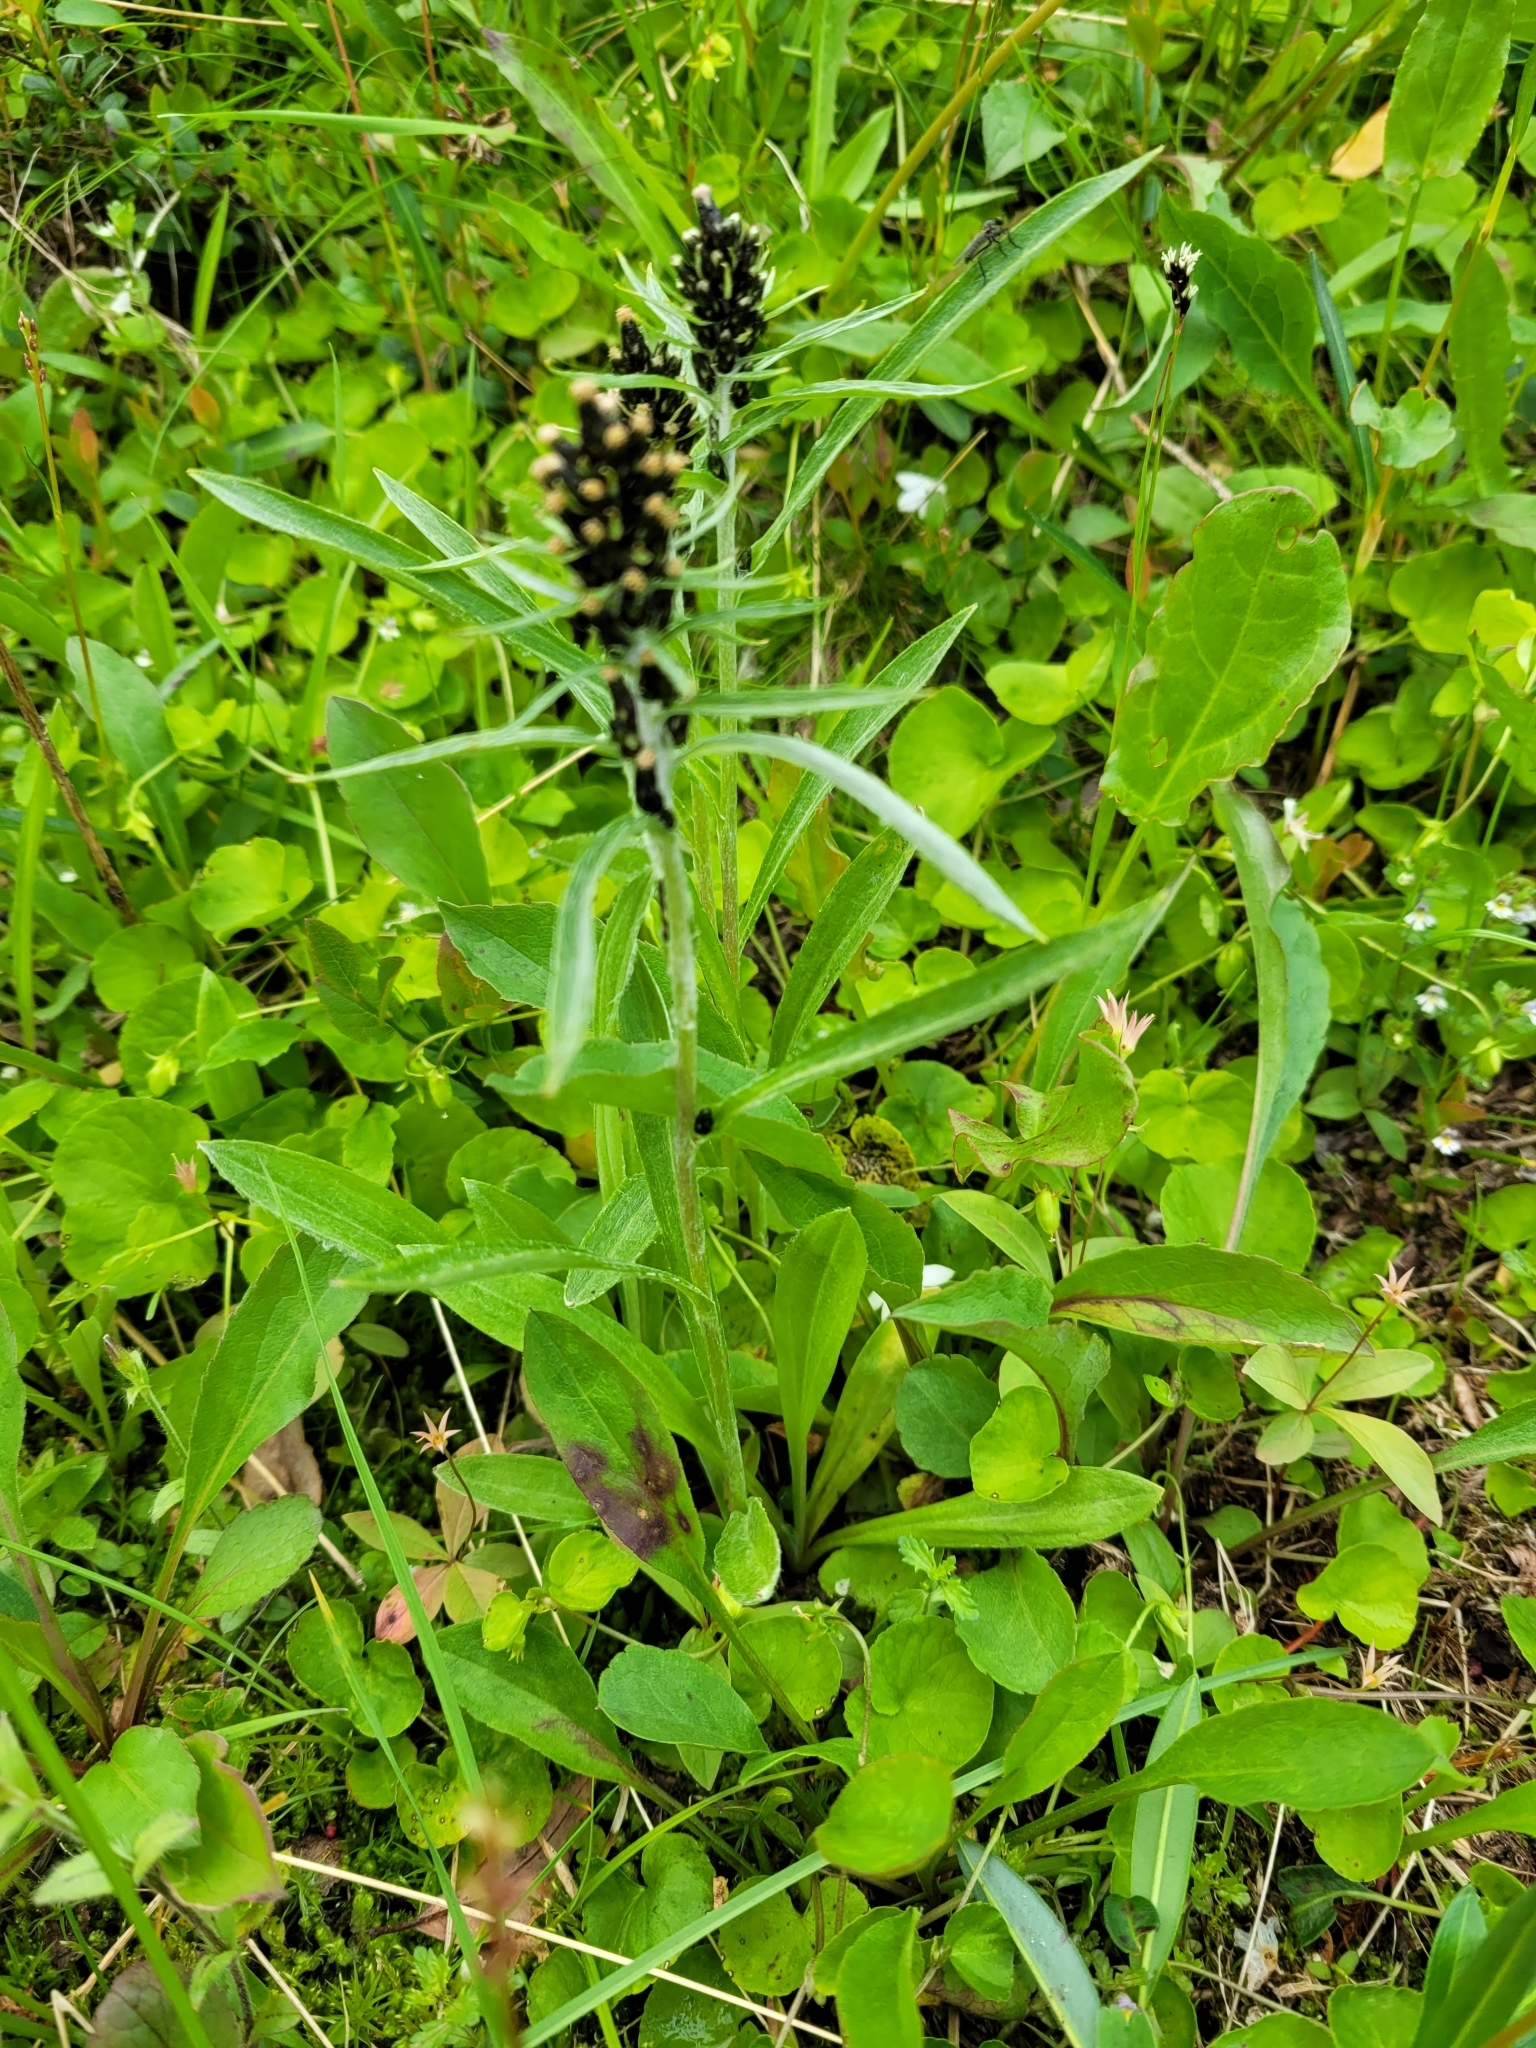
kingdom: Plantae
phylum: Tracheophyta
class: Magnoliopsida
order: Asterales
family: Asteraceae
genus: Omalotheca
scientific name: Omalotheca norvegica
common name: Norwegian arctic-cudweed
